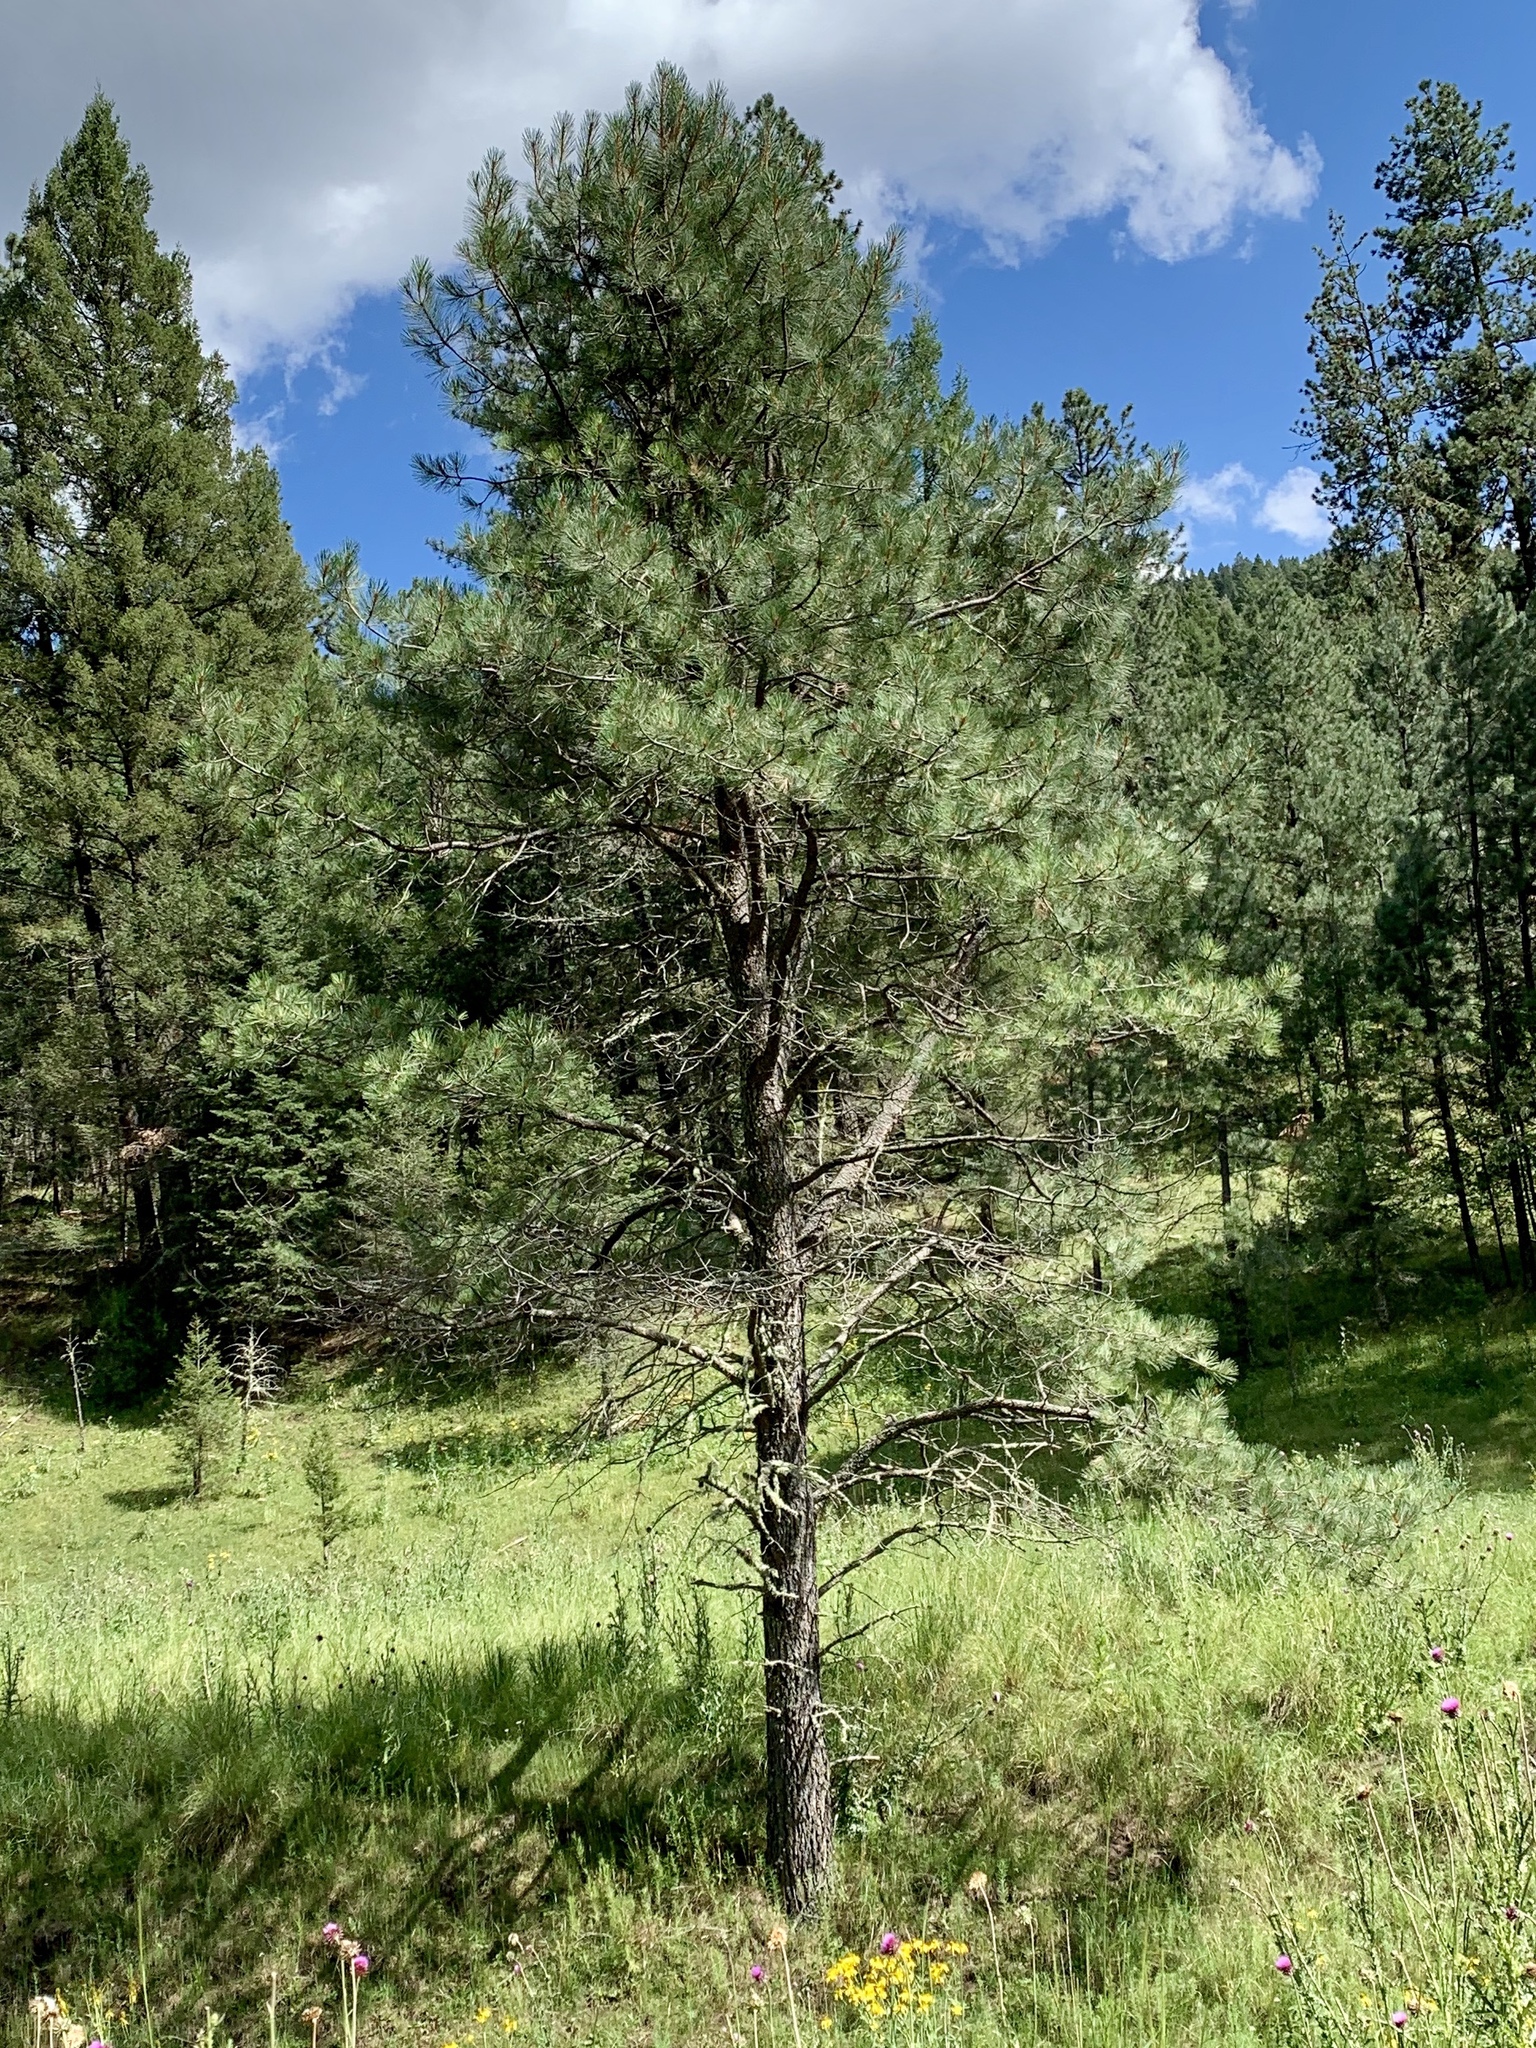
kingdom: Plantae
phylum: Tracheophyta
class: Pinopsida
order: Pinales
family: Pinaceae
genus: Pinus
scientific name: Pinus ponderosa
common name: Western yellow-pine
